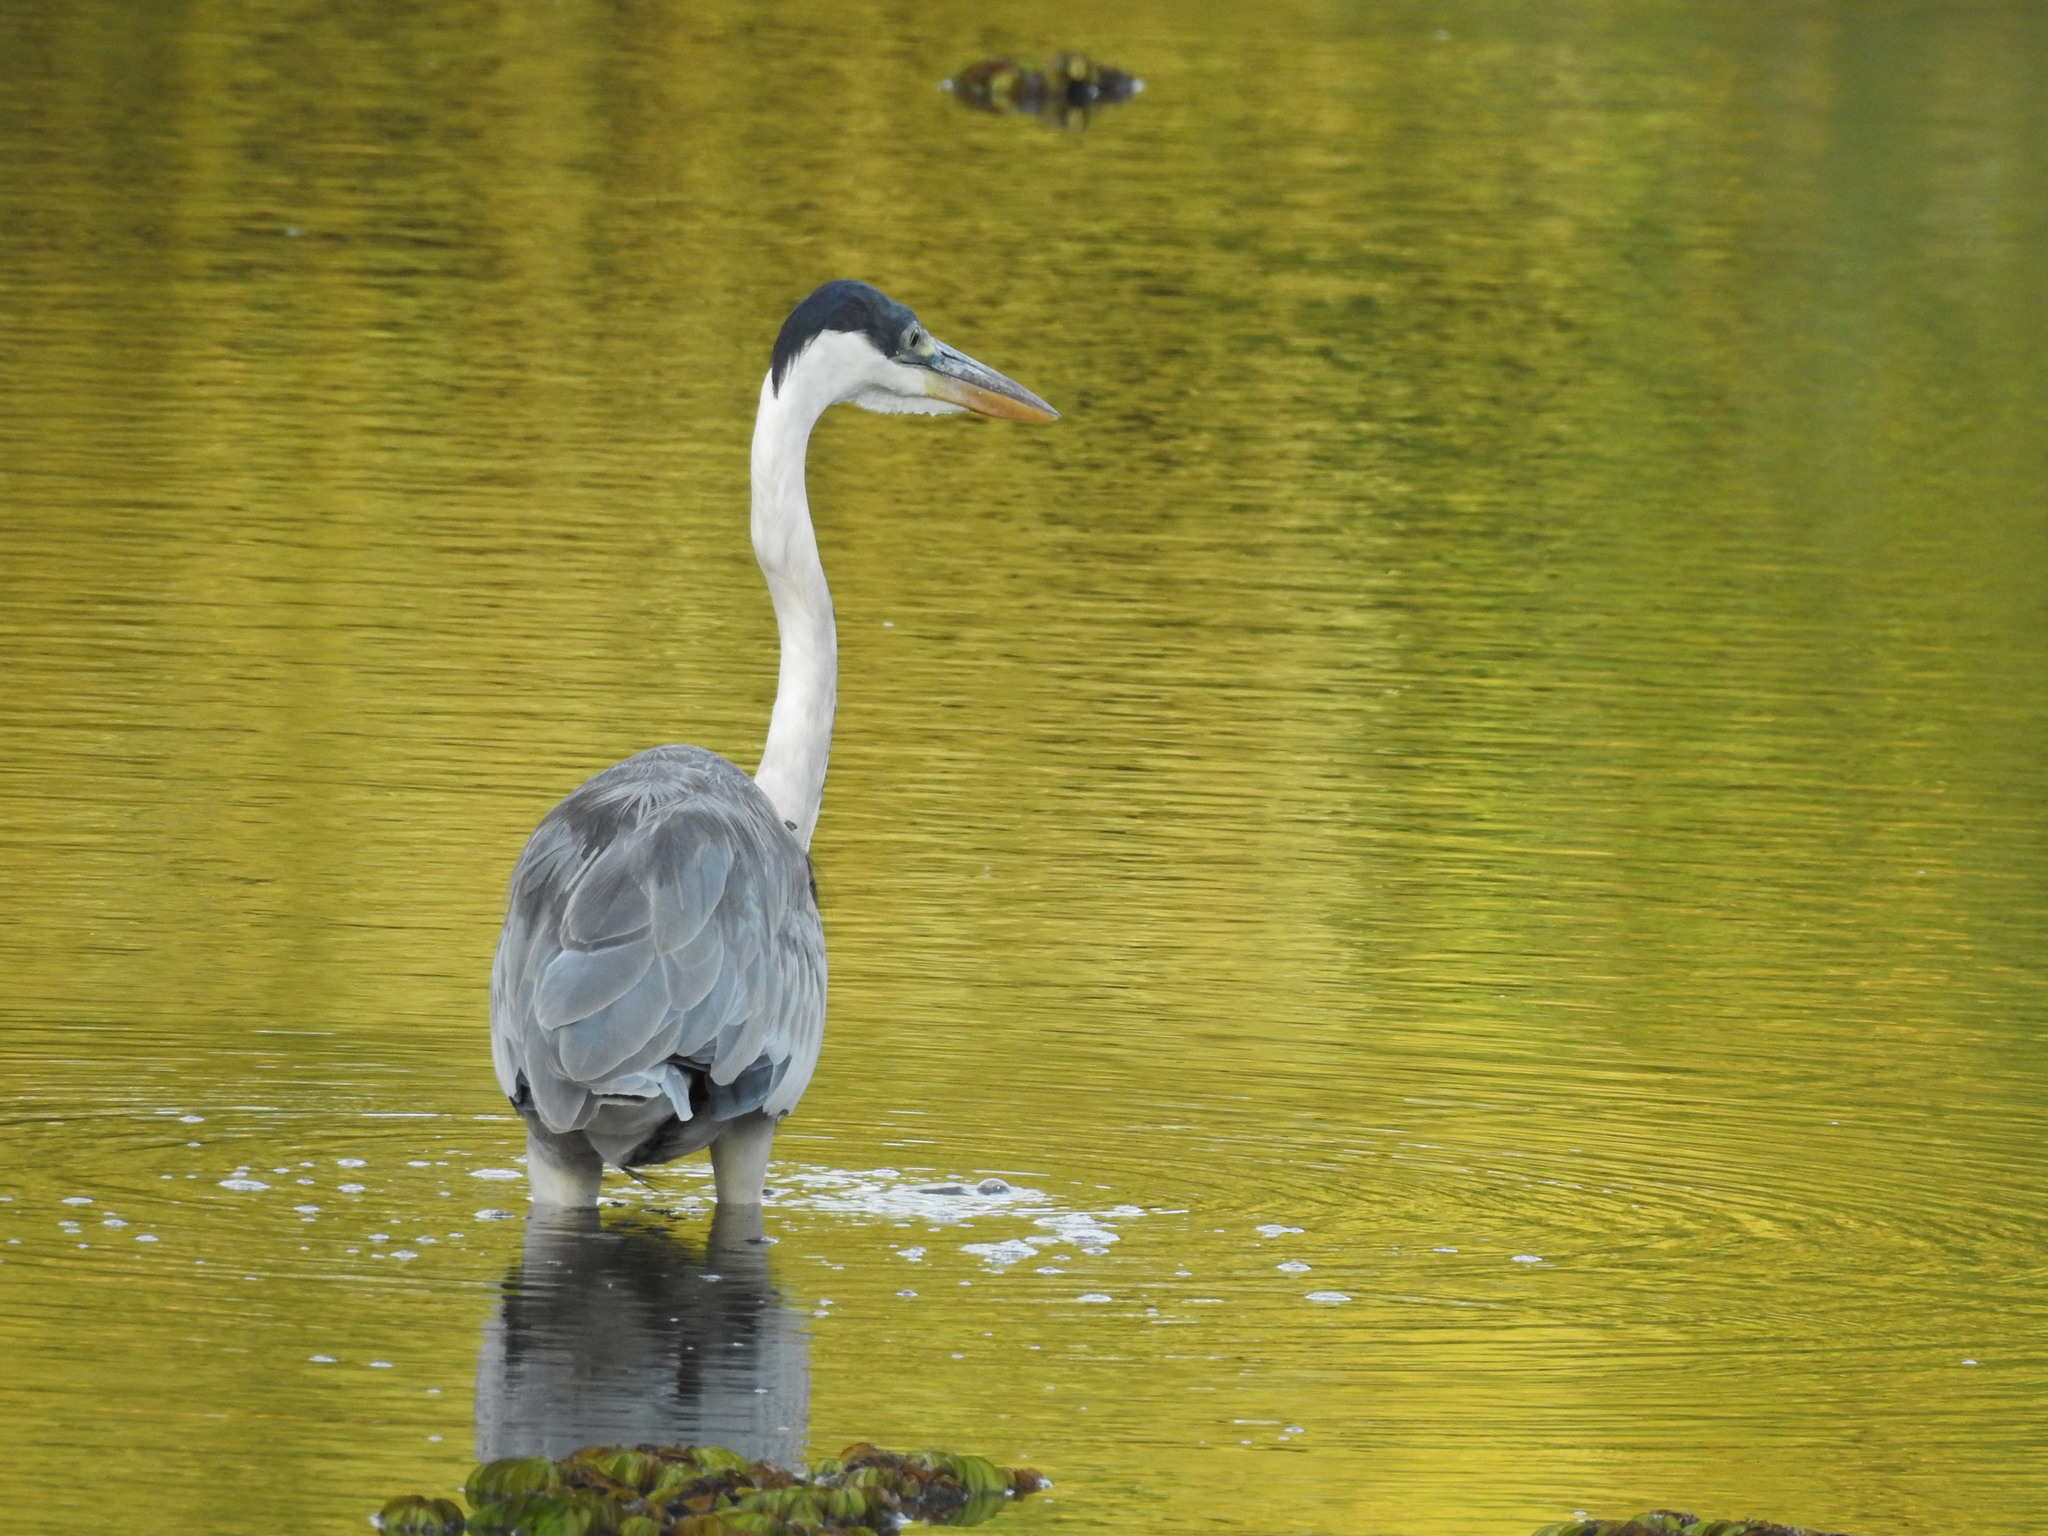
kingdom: Animalia
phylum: Chordata
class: Aves
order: Pelecaniformes
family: Ardeidae
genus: Ardea
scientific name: Ardea cocoi
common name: Cocoi heron
